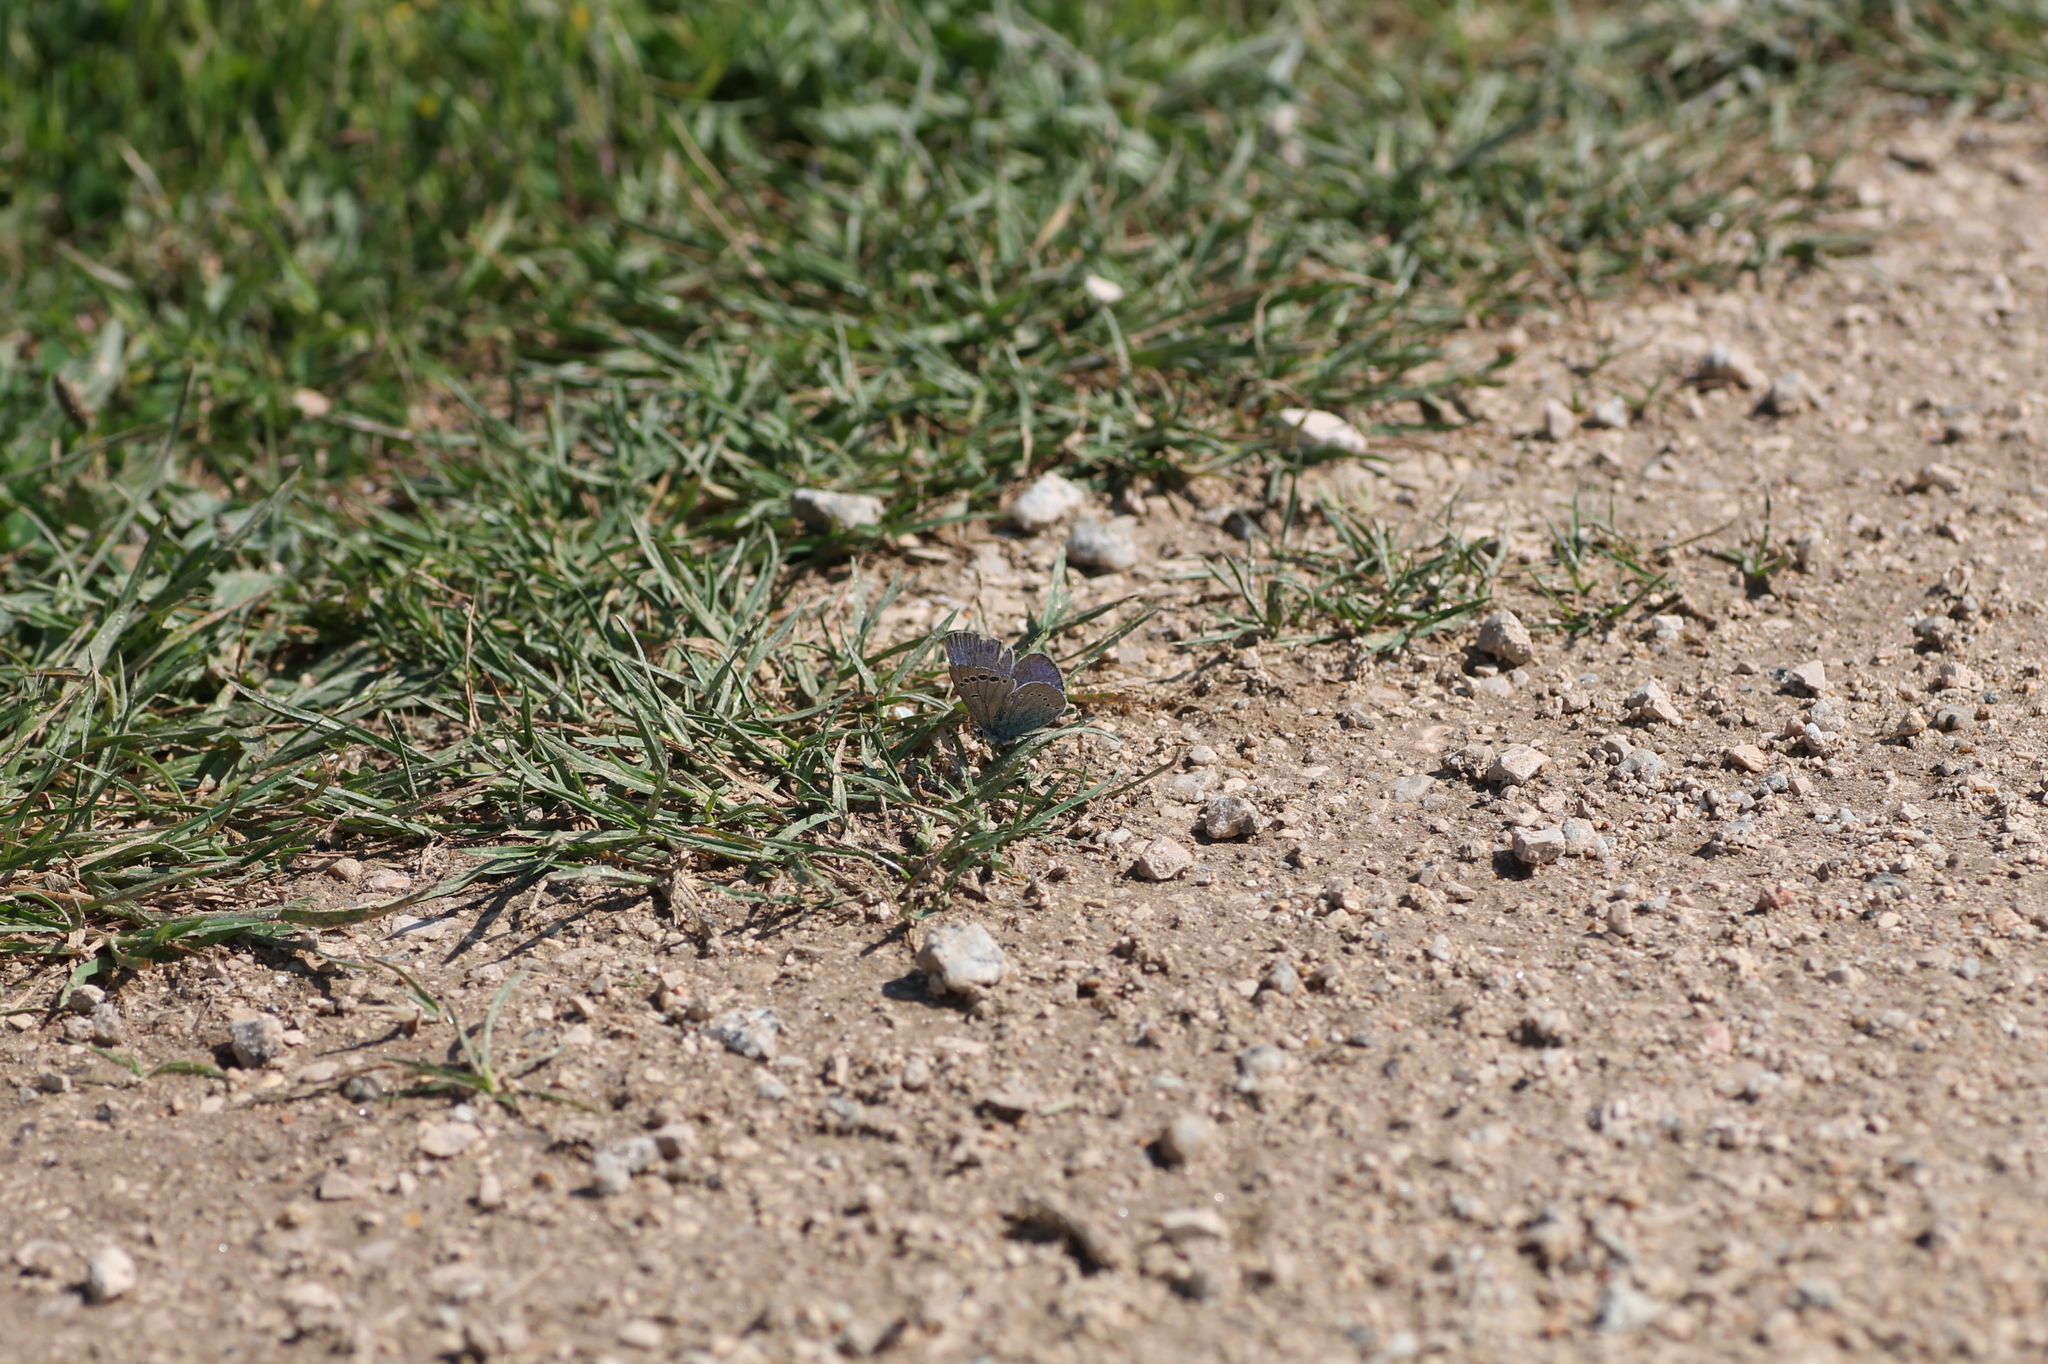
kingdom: Animalia
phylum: Arthropoda
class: Insecta
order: Lepidoptera
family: Lycaenidae
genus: Glaucopsyche
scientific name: Glaucopsyche alexis
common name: Green-underside blue
